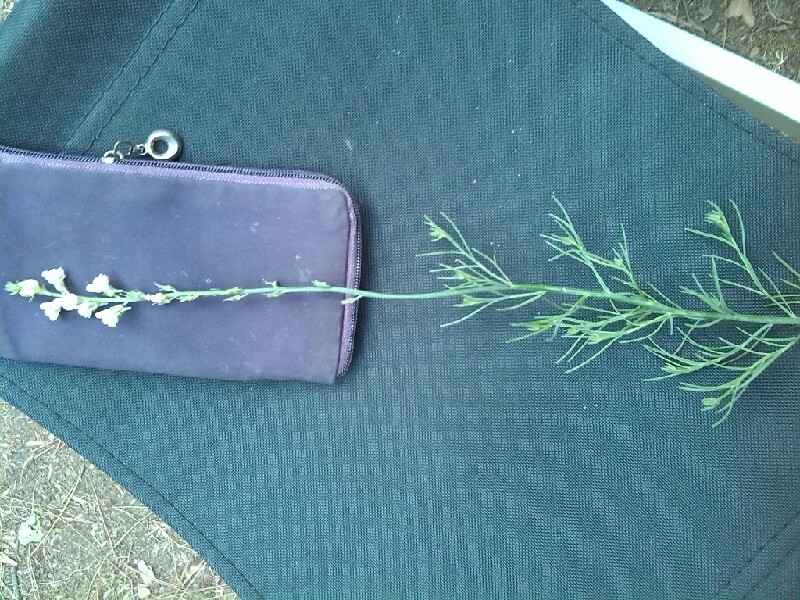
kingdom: Plantae
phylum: Tracheophyta
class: Magnoliopsida
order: Lamiales
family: Plantaginaceae
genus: Linaria
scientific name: Linaria repens
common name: Pale toadflax
